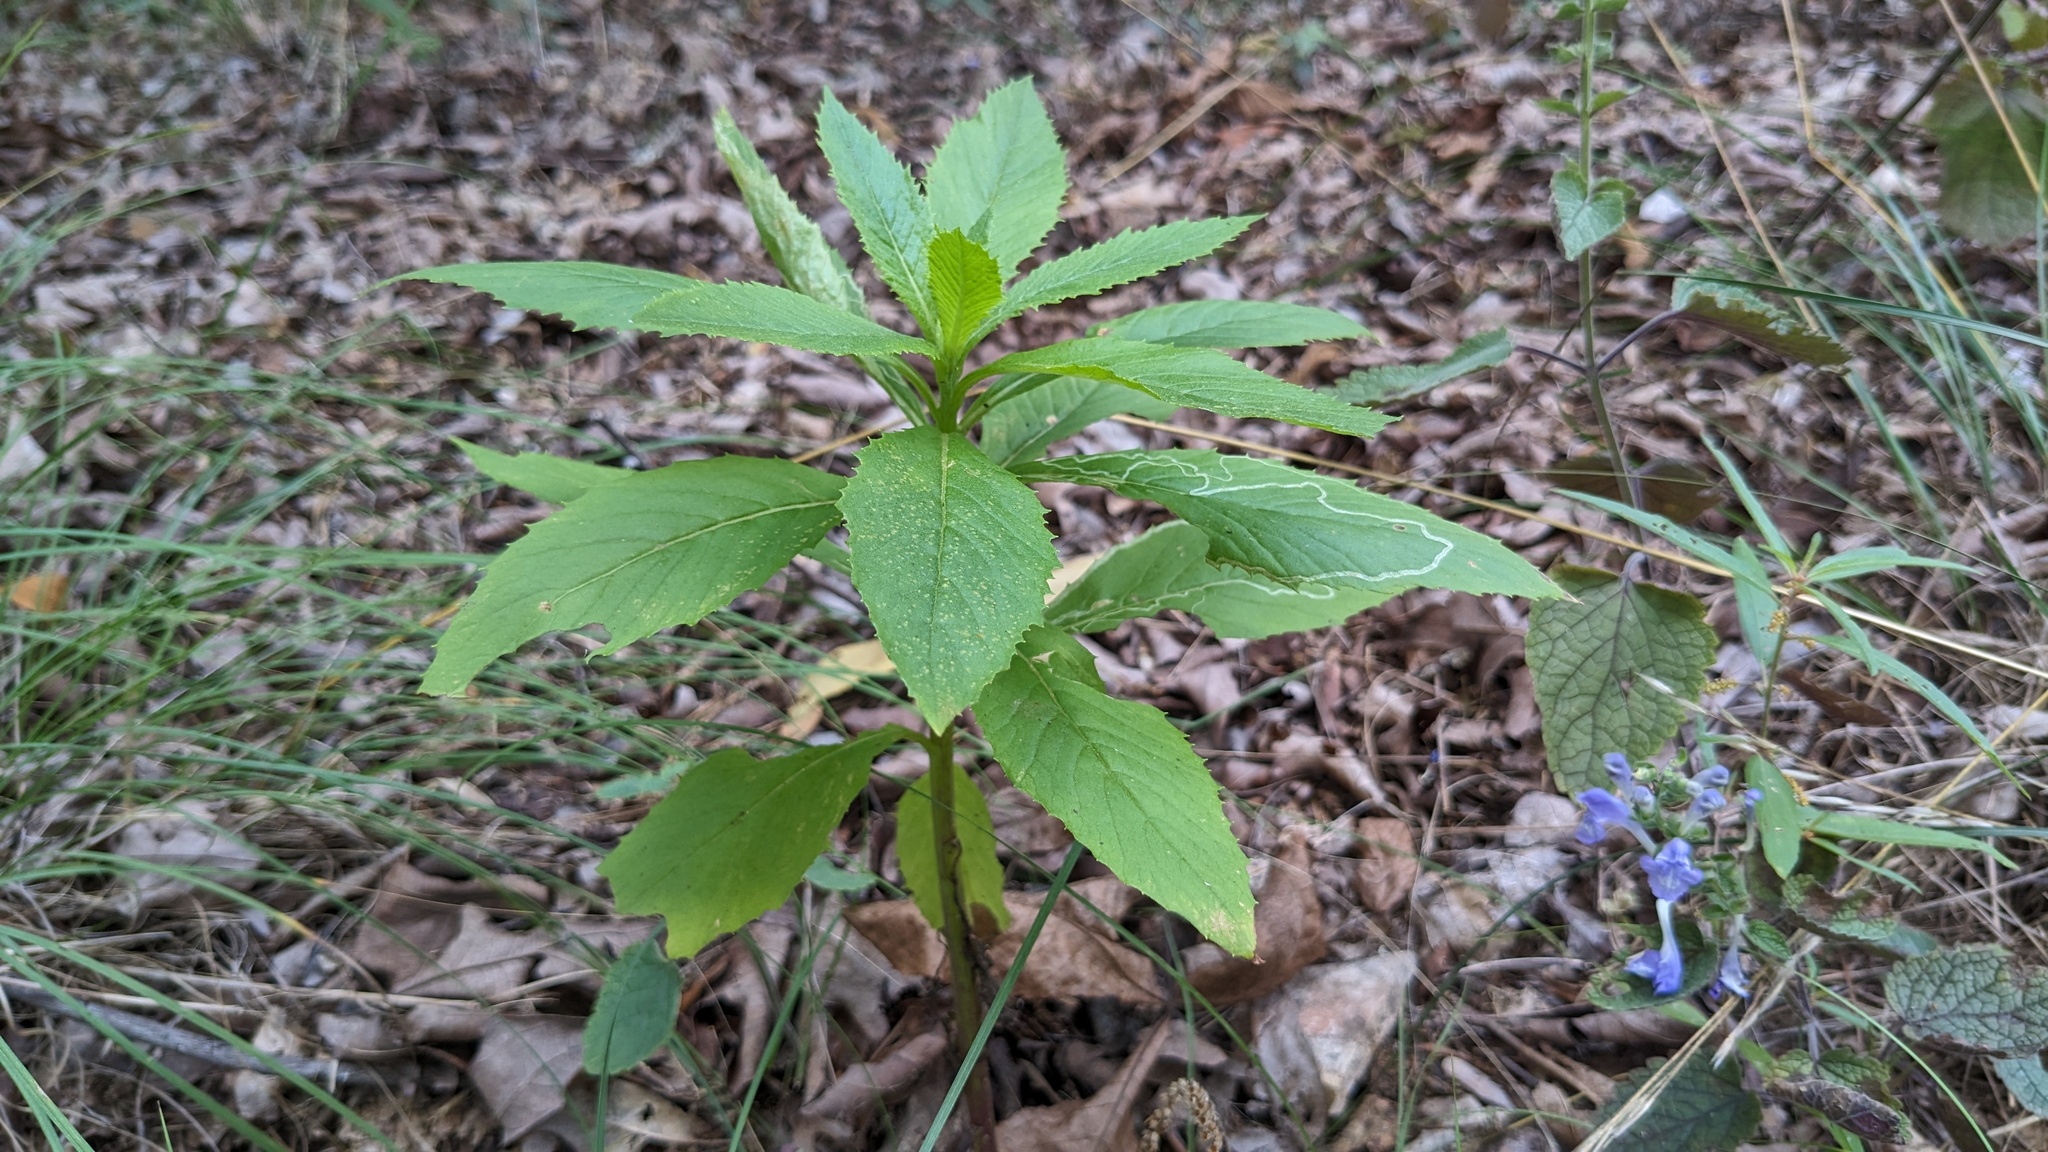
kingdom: Plantae
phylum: Tracheophyta
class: Magnoliopsida
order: Asterales
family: Asteraceae
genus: Erechtites
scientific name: Erechtites hieraciifolius
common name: American burnweed
